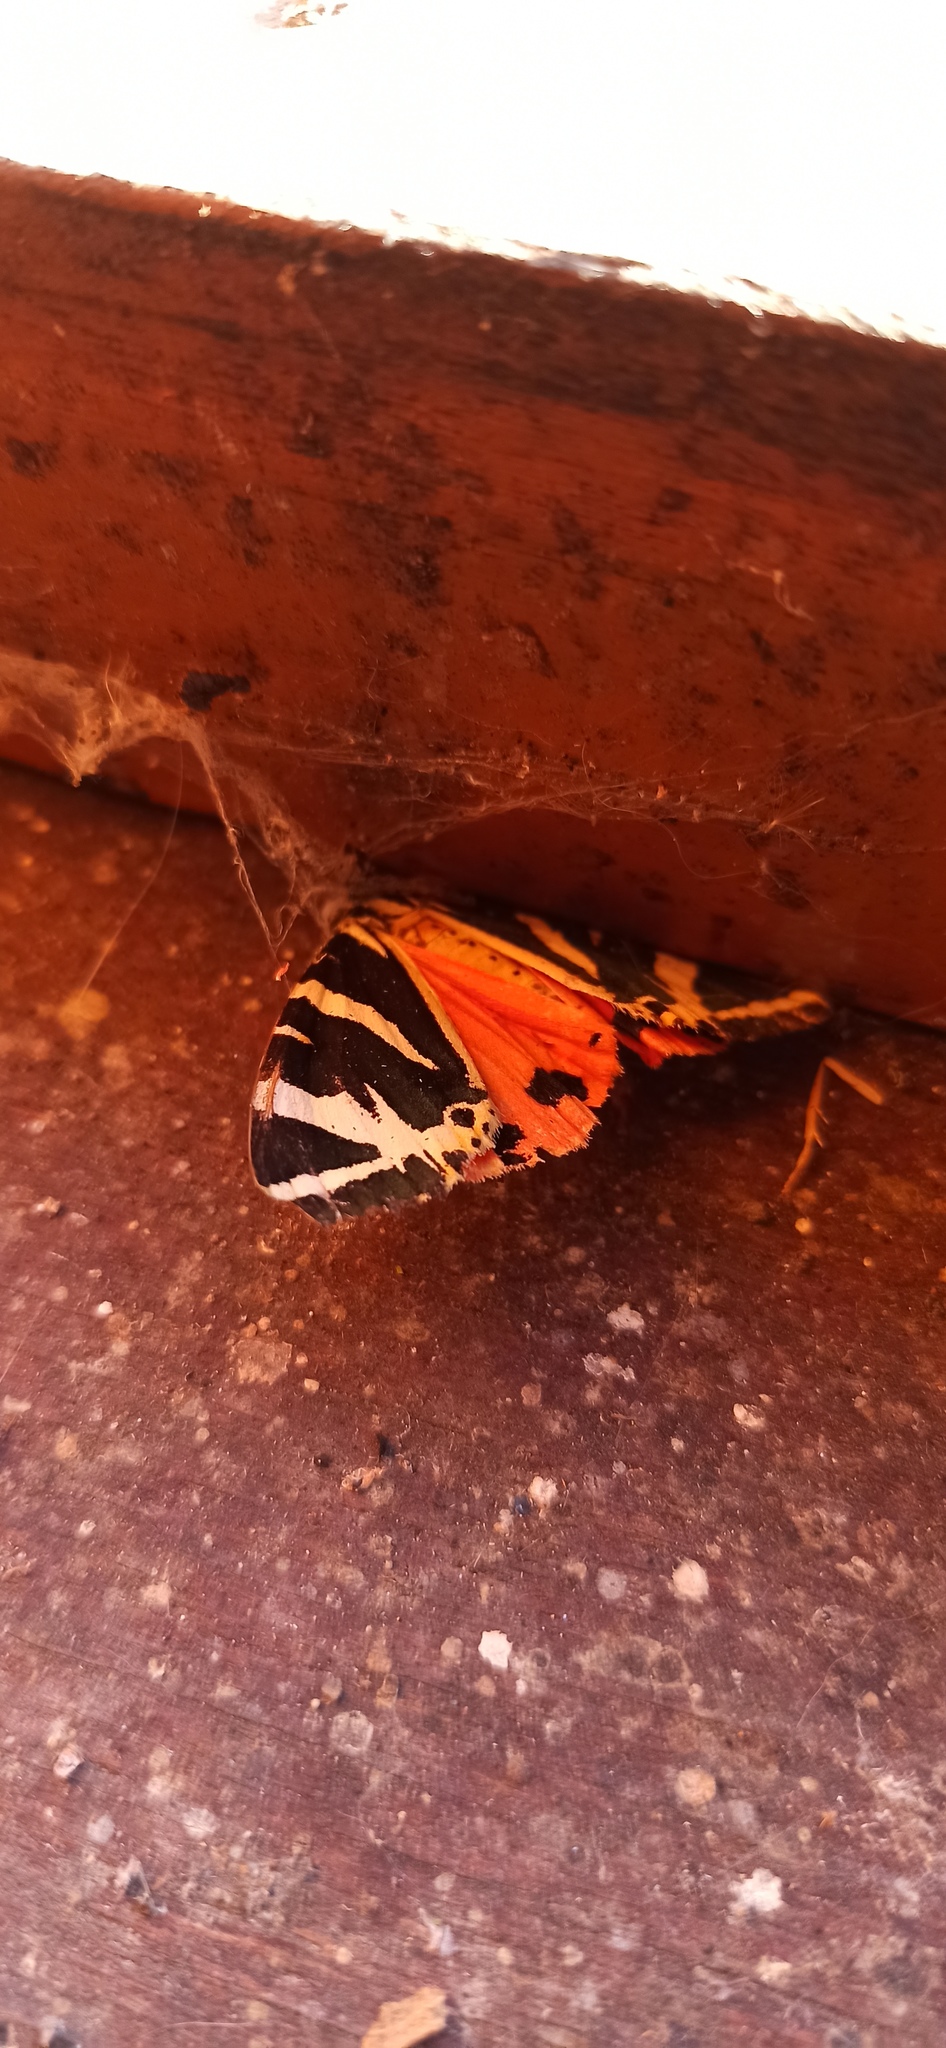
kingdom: Animalia
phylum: Arthropoda
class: Insecta
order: Lepidoptera
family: Erebidae
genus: Euplagia
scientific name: Euplagia quadripunctaria
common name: Jersey tiger
